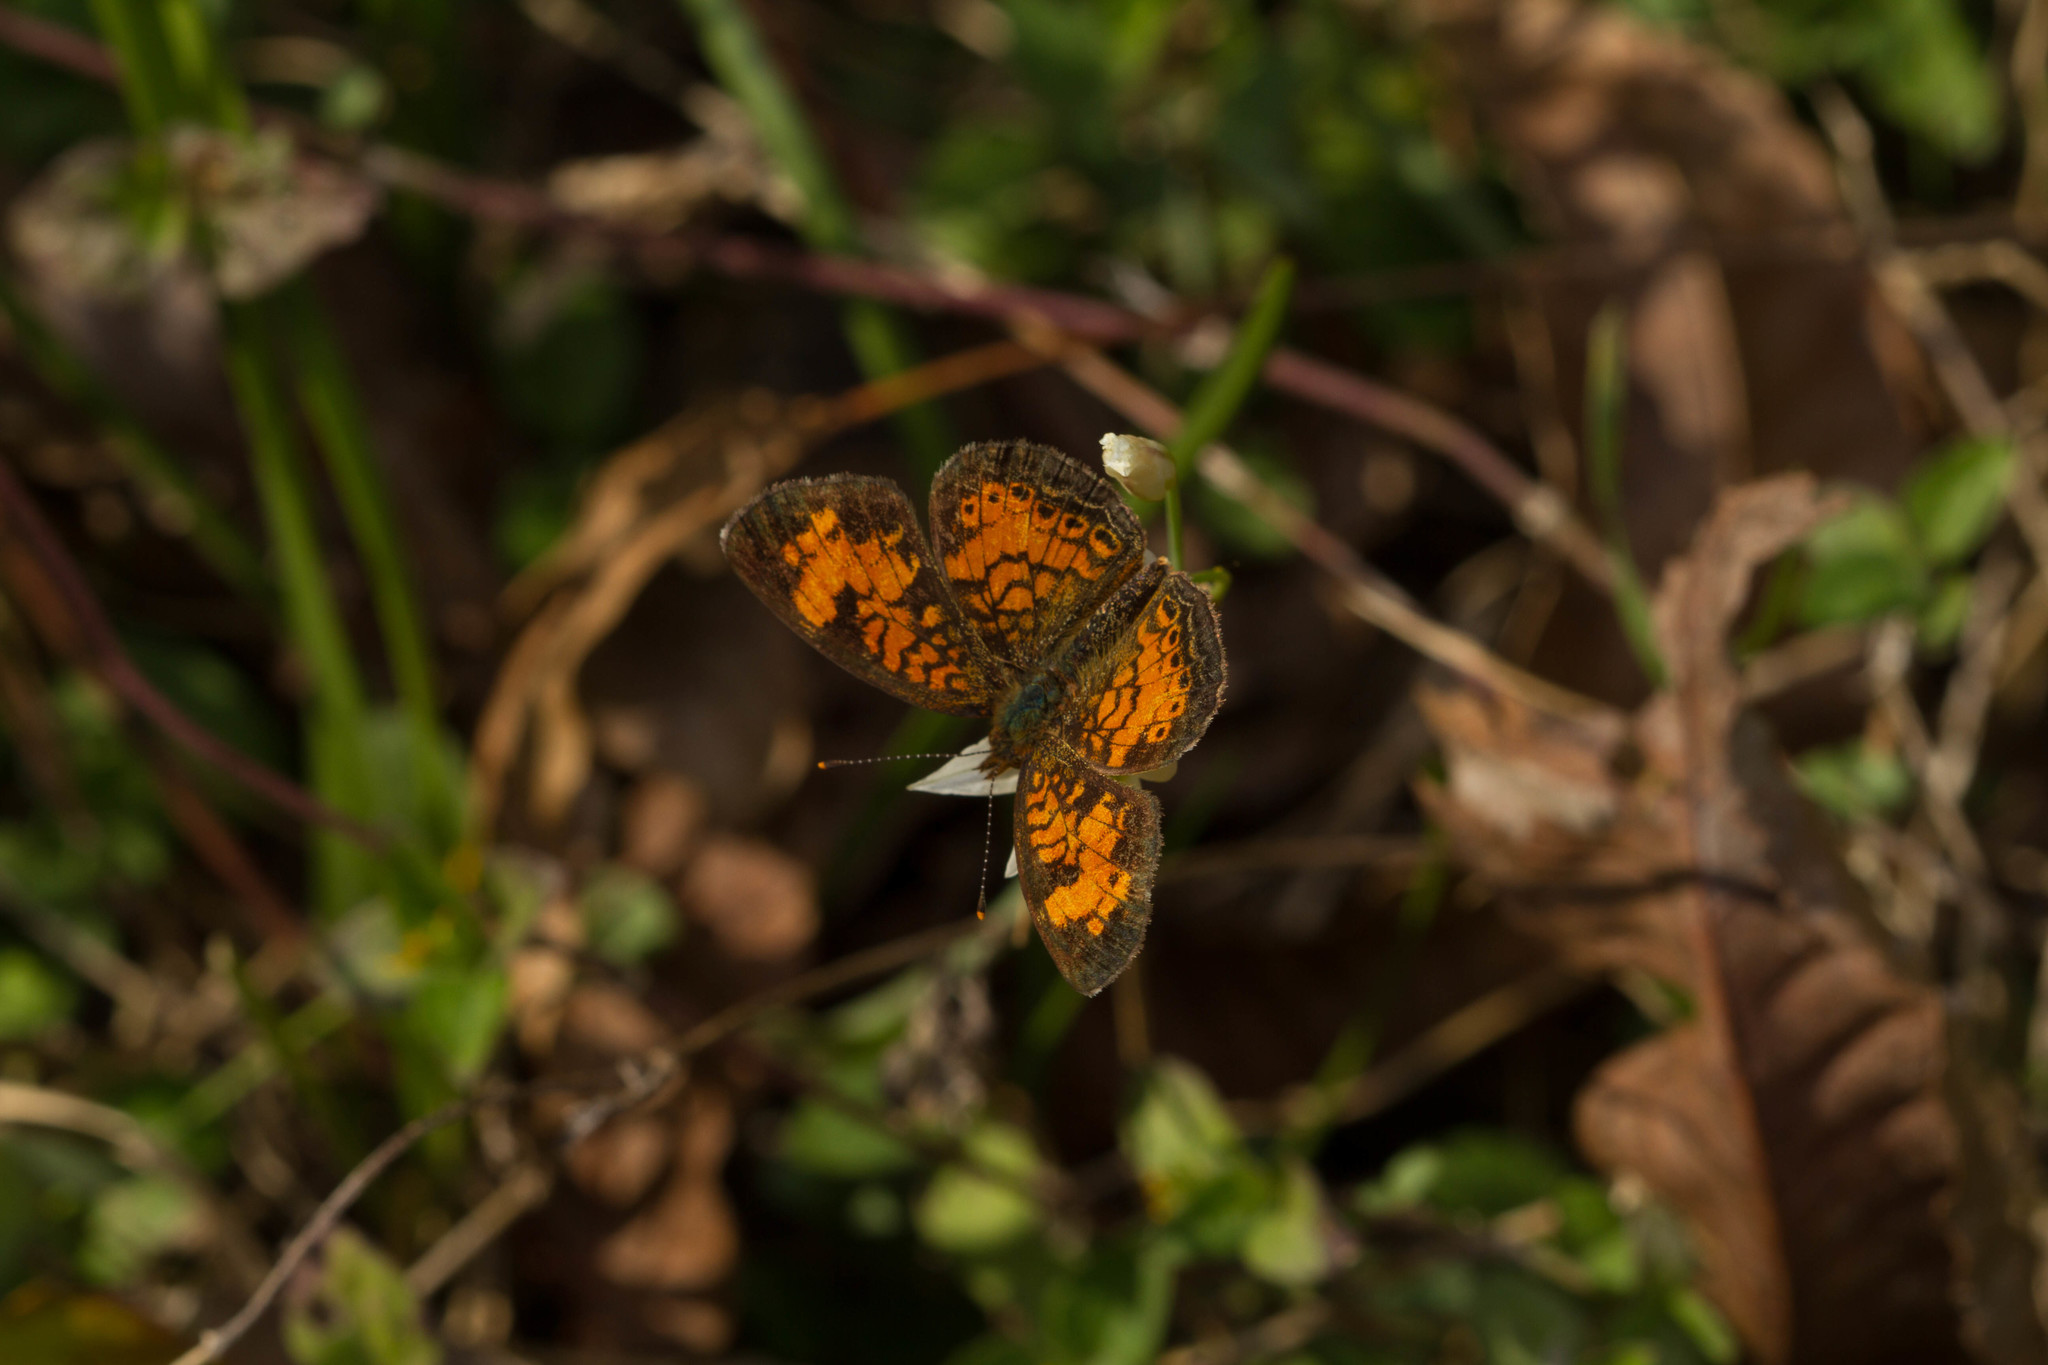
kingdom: Animalia
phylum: Arthropoda
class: Insecta
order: Lepidoptera
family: Nymphalidae
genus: Phyciodes
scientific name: Phyciodes tharos
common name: Pearl crescent
